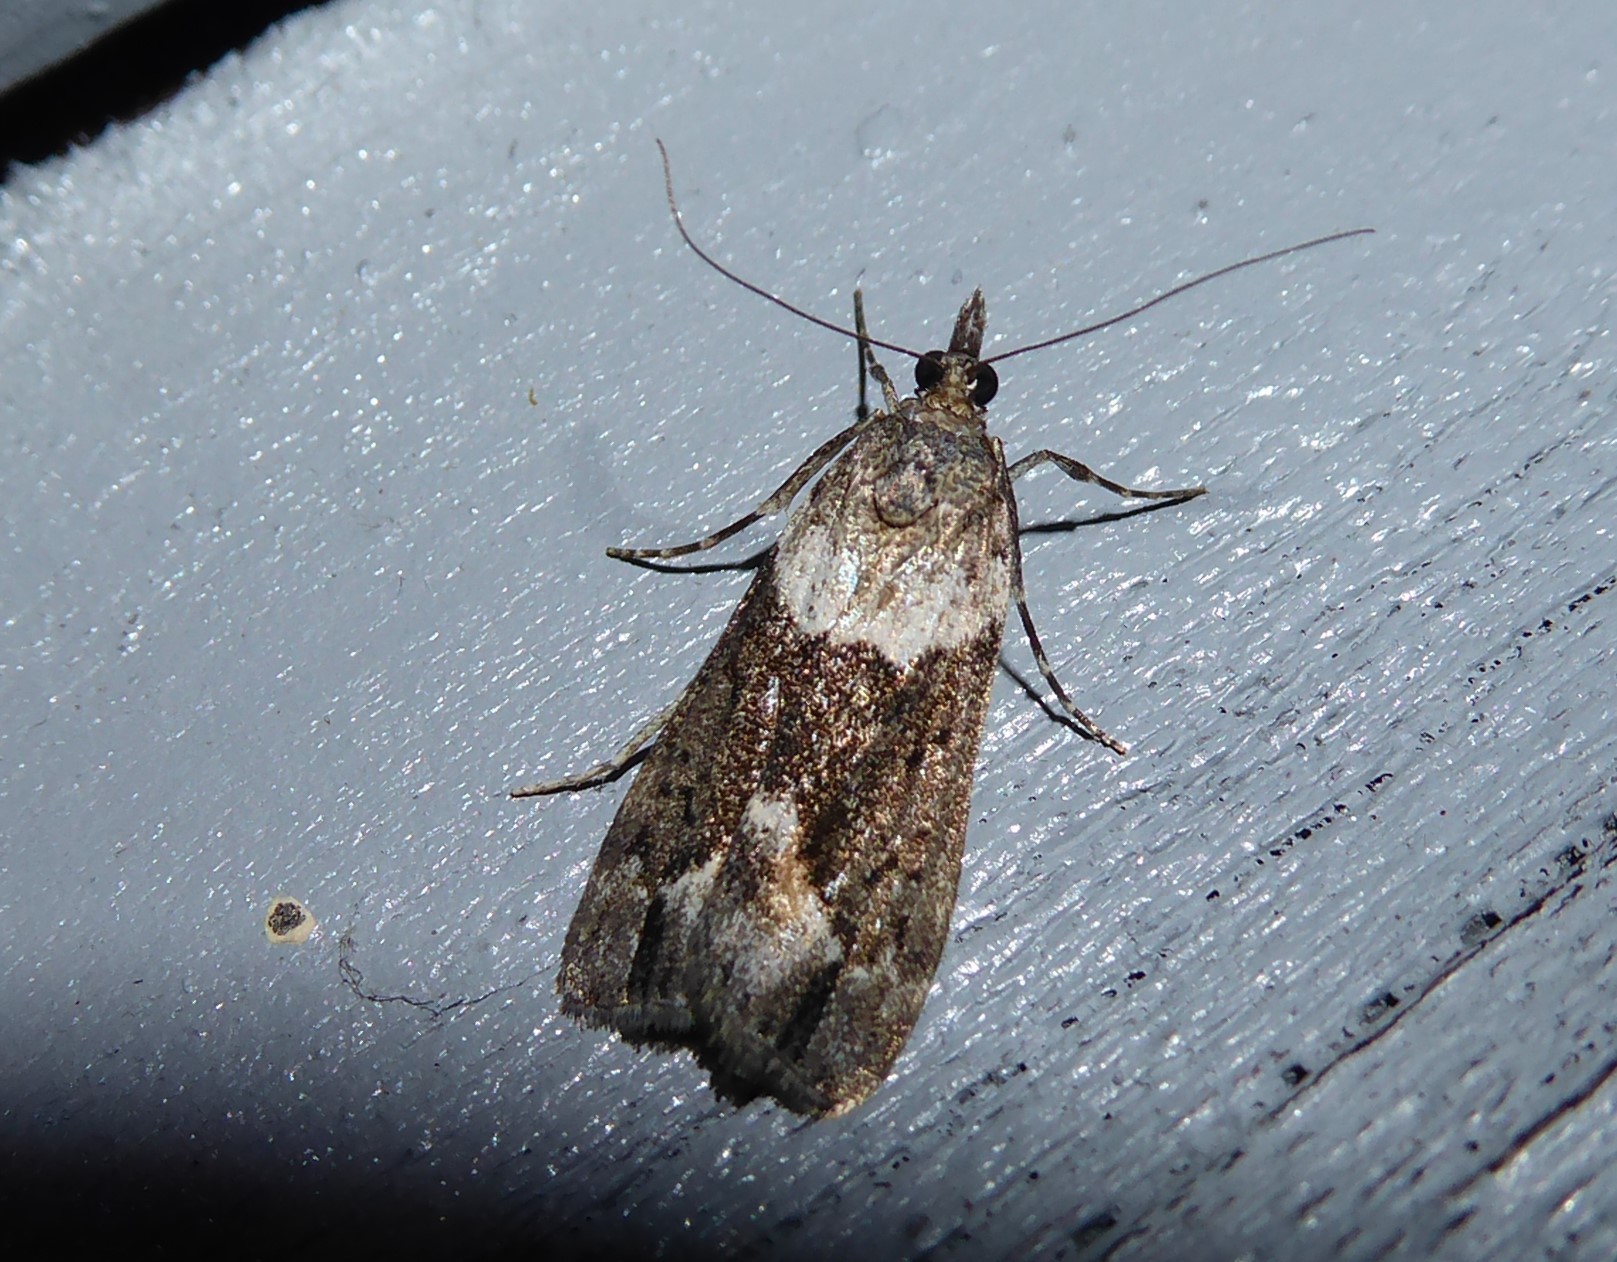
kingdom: Animalia
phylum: Arthropoda
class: Insecta
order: Lepidoptera
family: Crambidae
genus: Eudonia
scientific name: Eudonia submarginalis
